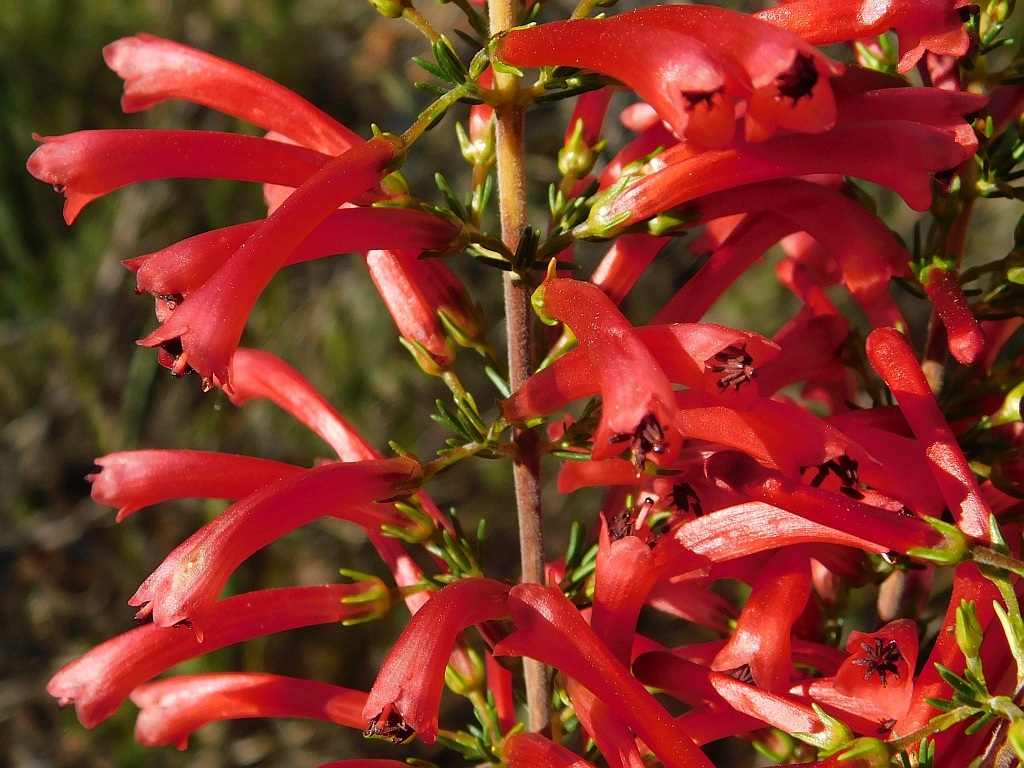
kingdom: Plantae
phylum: Tracheophyta
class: Magnoliopsida
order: Ericales
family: Ericaceae
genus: Erica
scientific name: Erica cruenta
